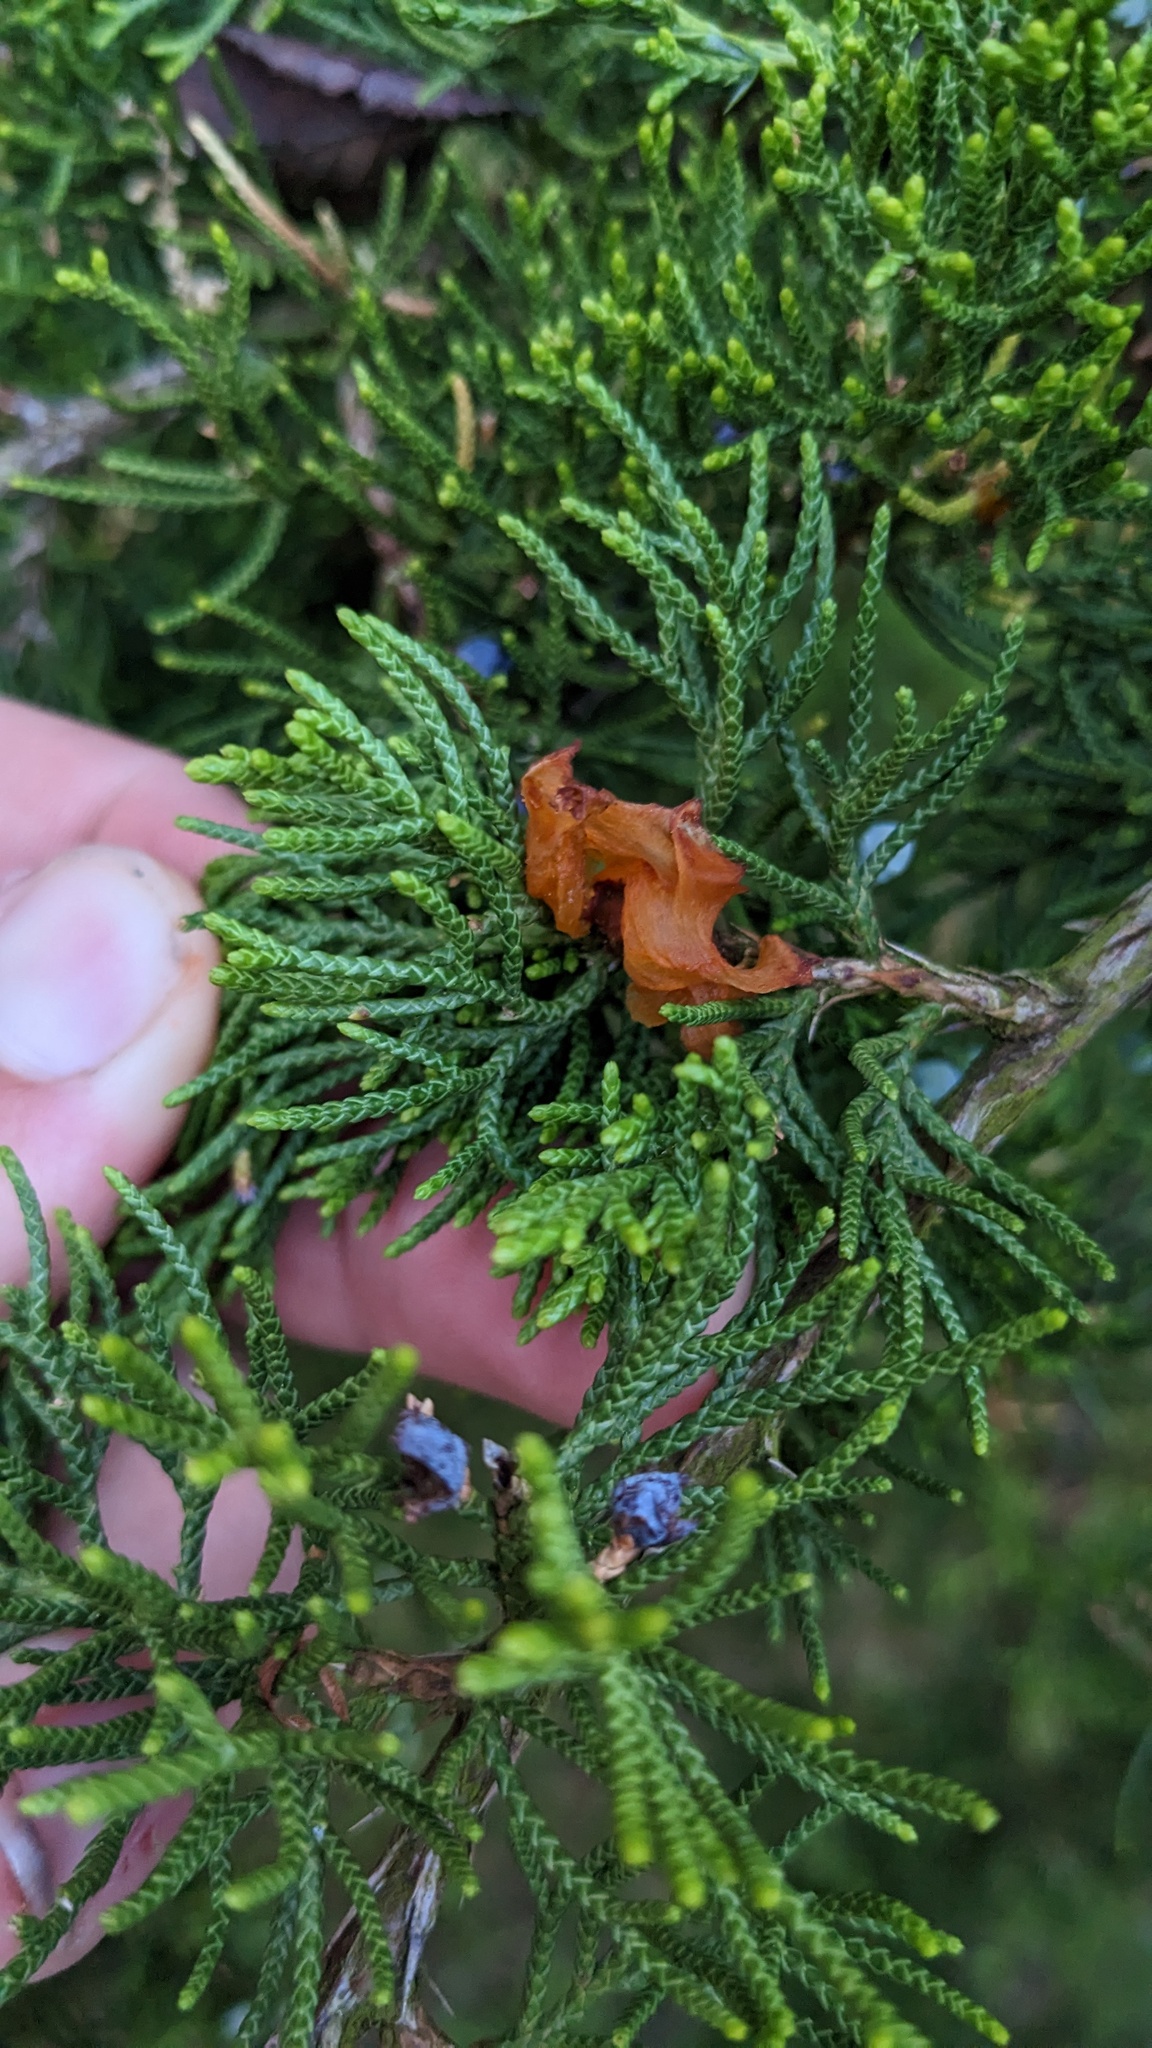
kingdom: Fungi
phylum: Basidiomycota
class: Pucciniomycetes
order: Pucciniales
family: Gymnosporangiaceae
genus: Gymnosporangium
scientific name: Gymnosporangium
